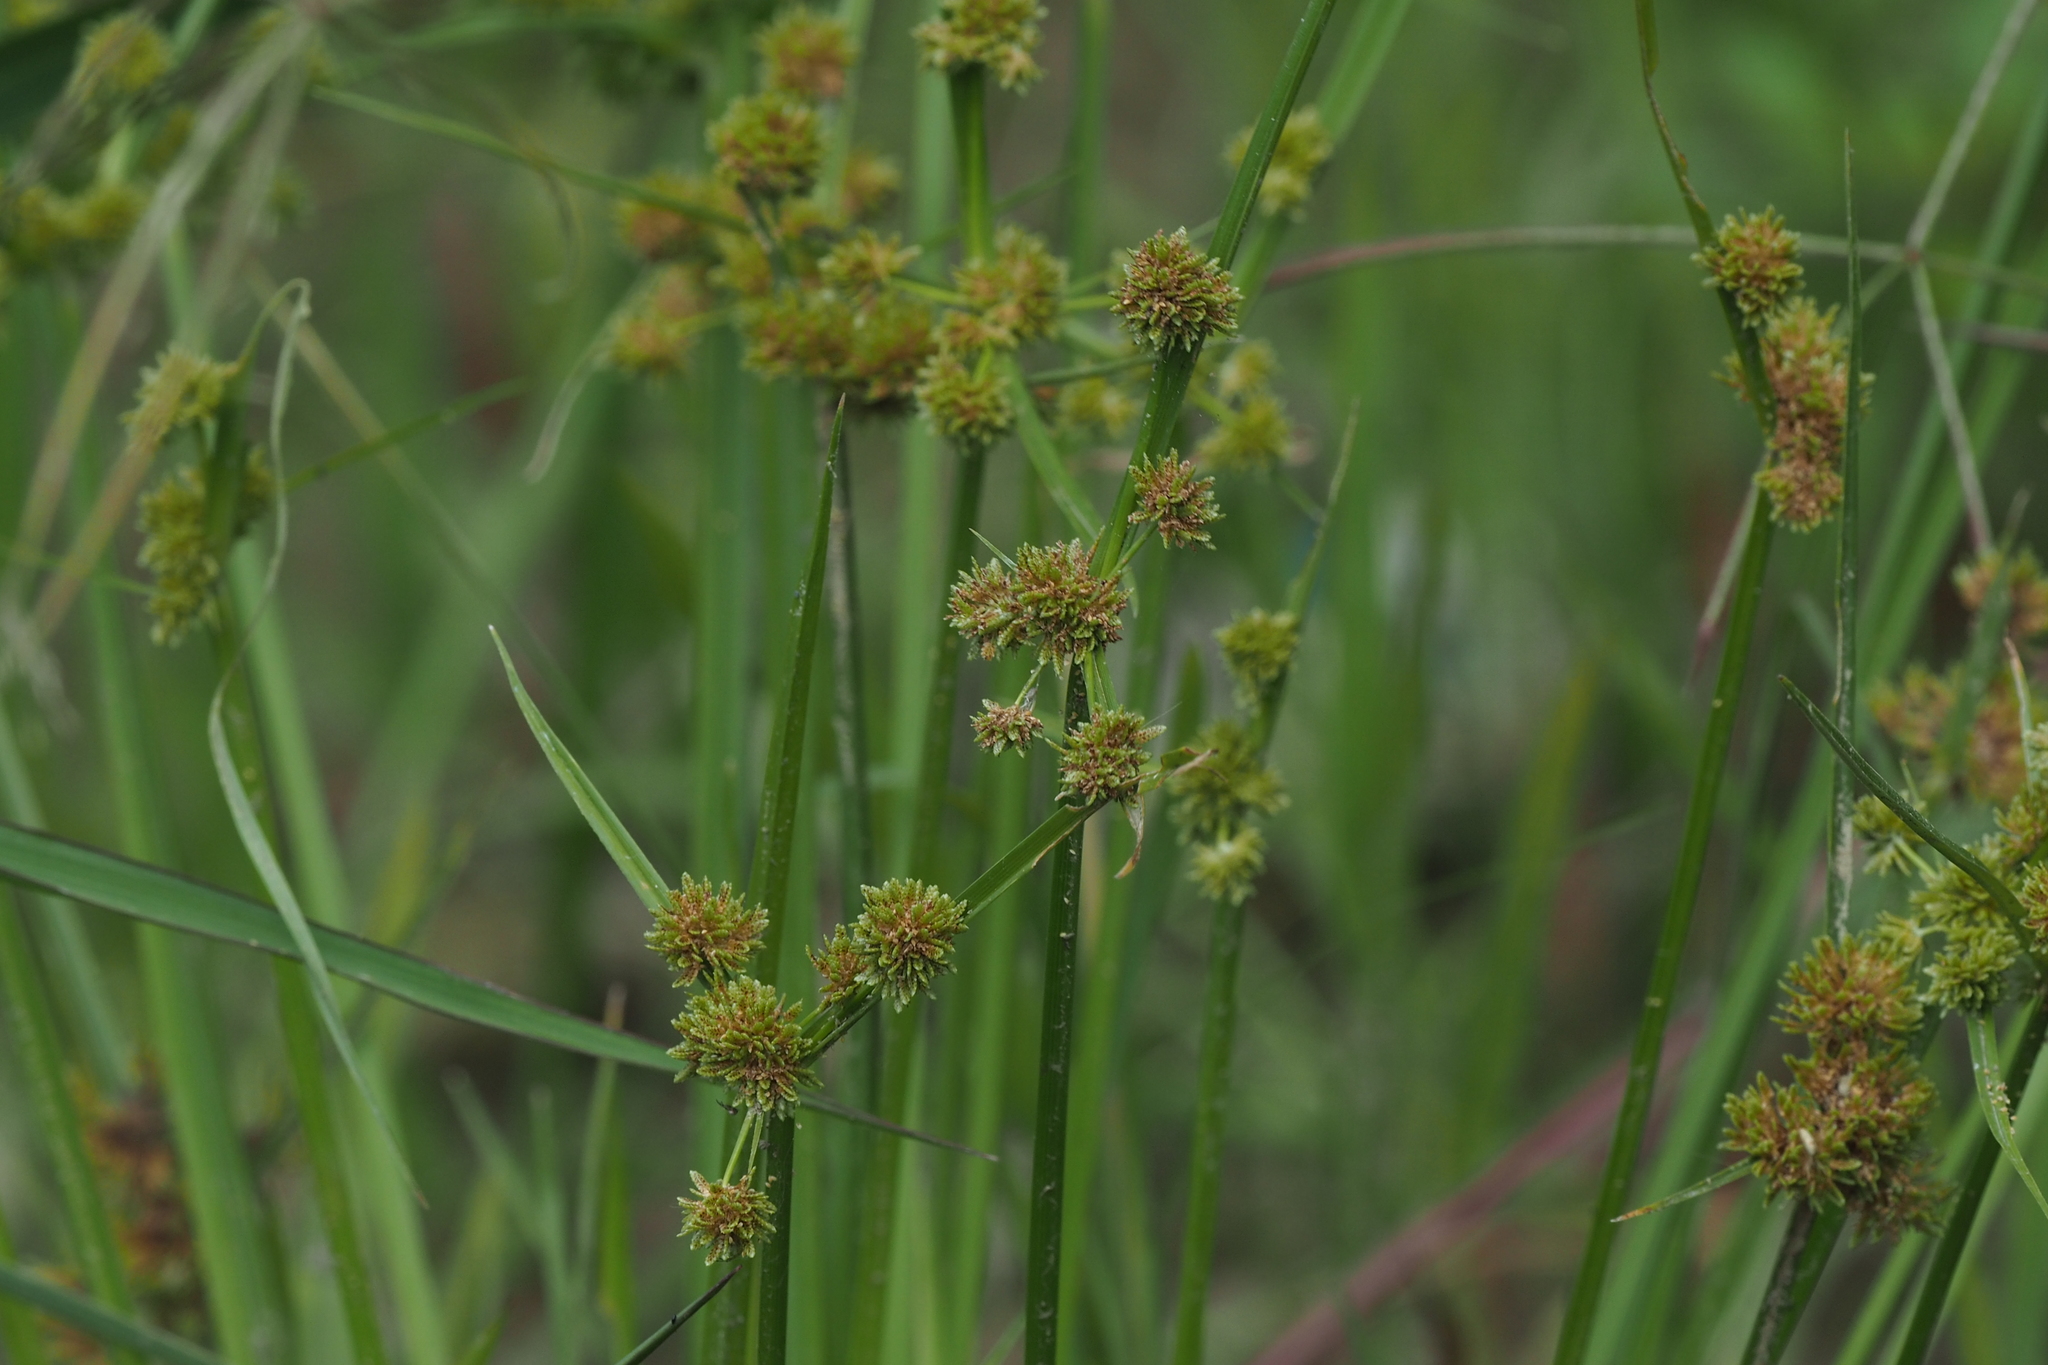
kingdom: Plantae
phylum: Tracheophyta
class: Liliopsida
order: Poales
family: Cyperaceae
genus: Cyperus
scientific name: Cyperus difformis
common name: Variable flatsedge
